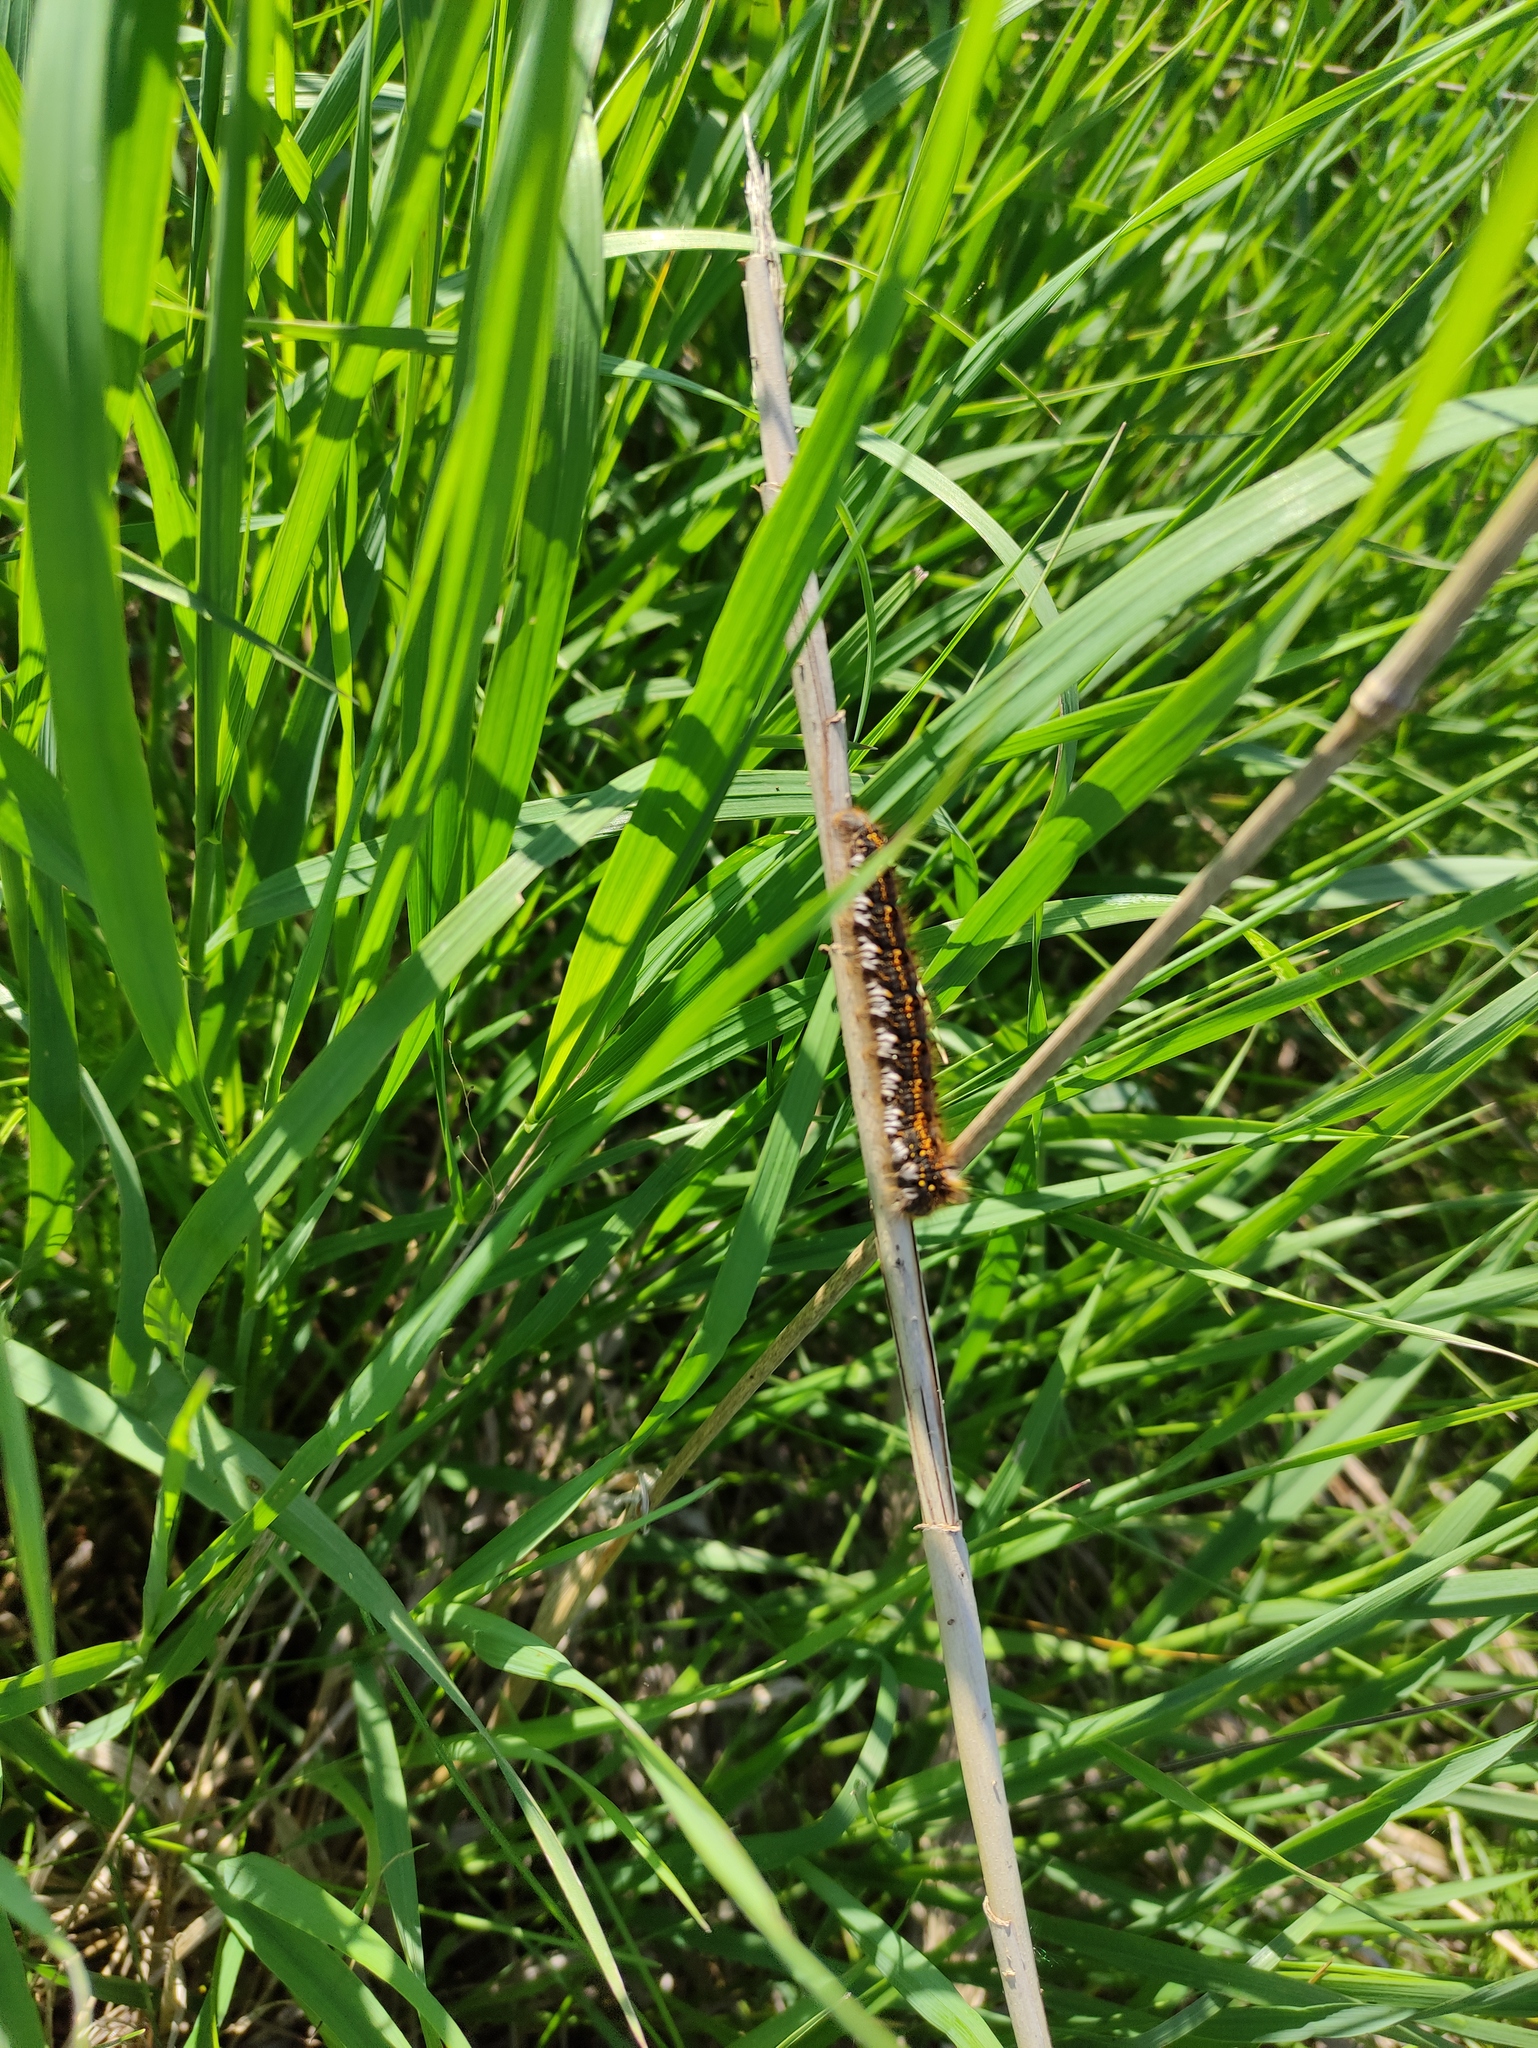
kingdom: Animalia
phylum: Arthropoda
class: Insecta
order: Lepidoptera
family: Lasiocampidae
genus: Euthrix
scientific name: Euthrix potatoria
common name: Drinker
